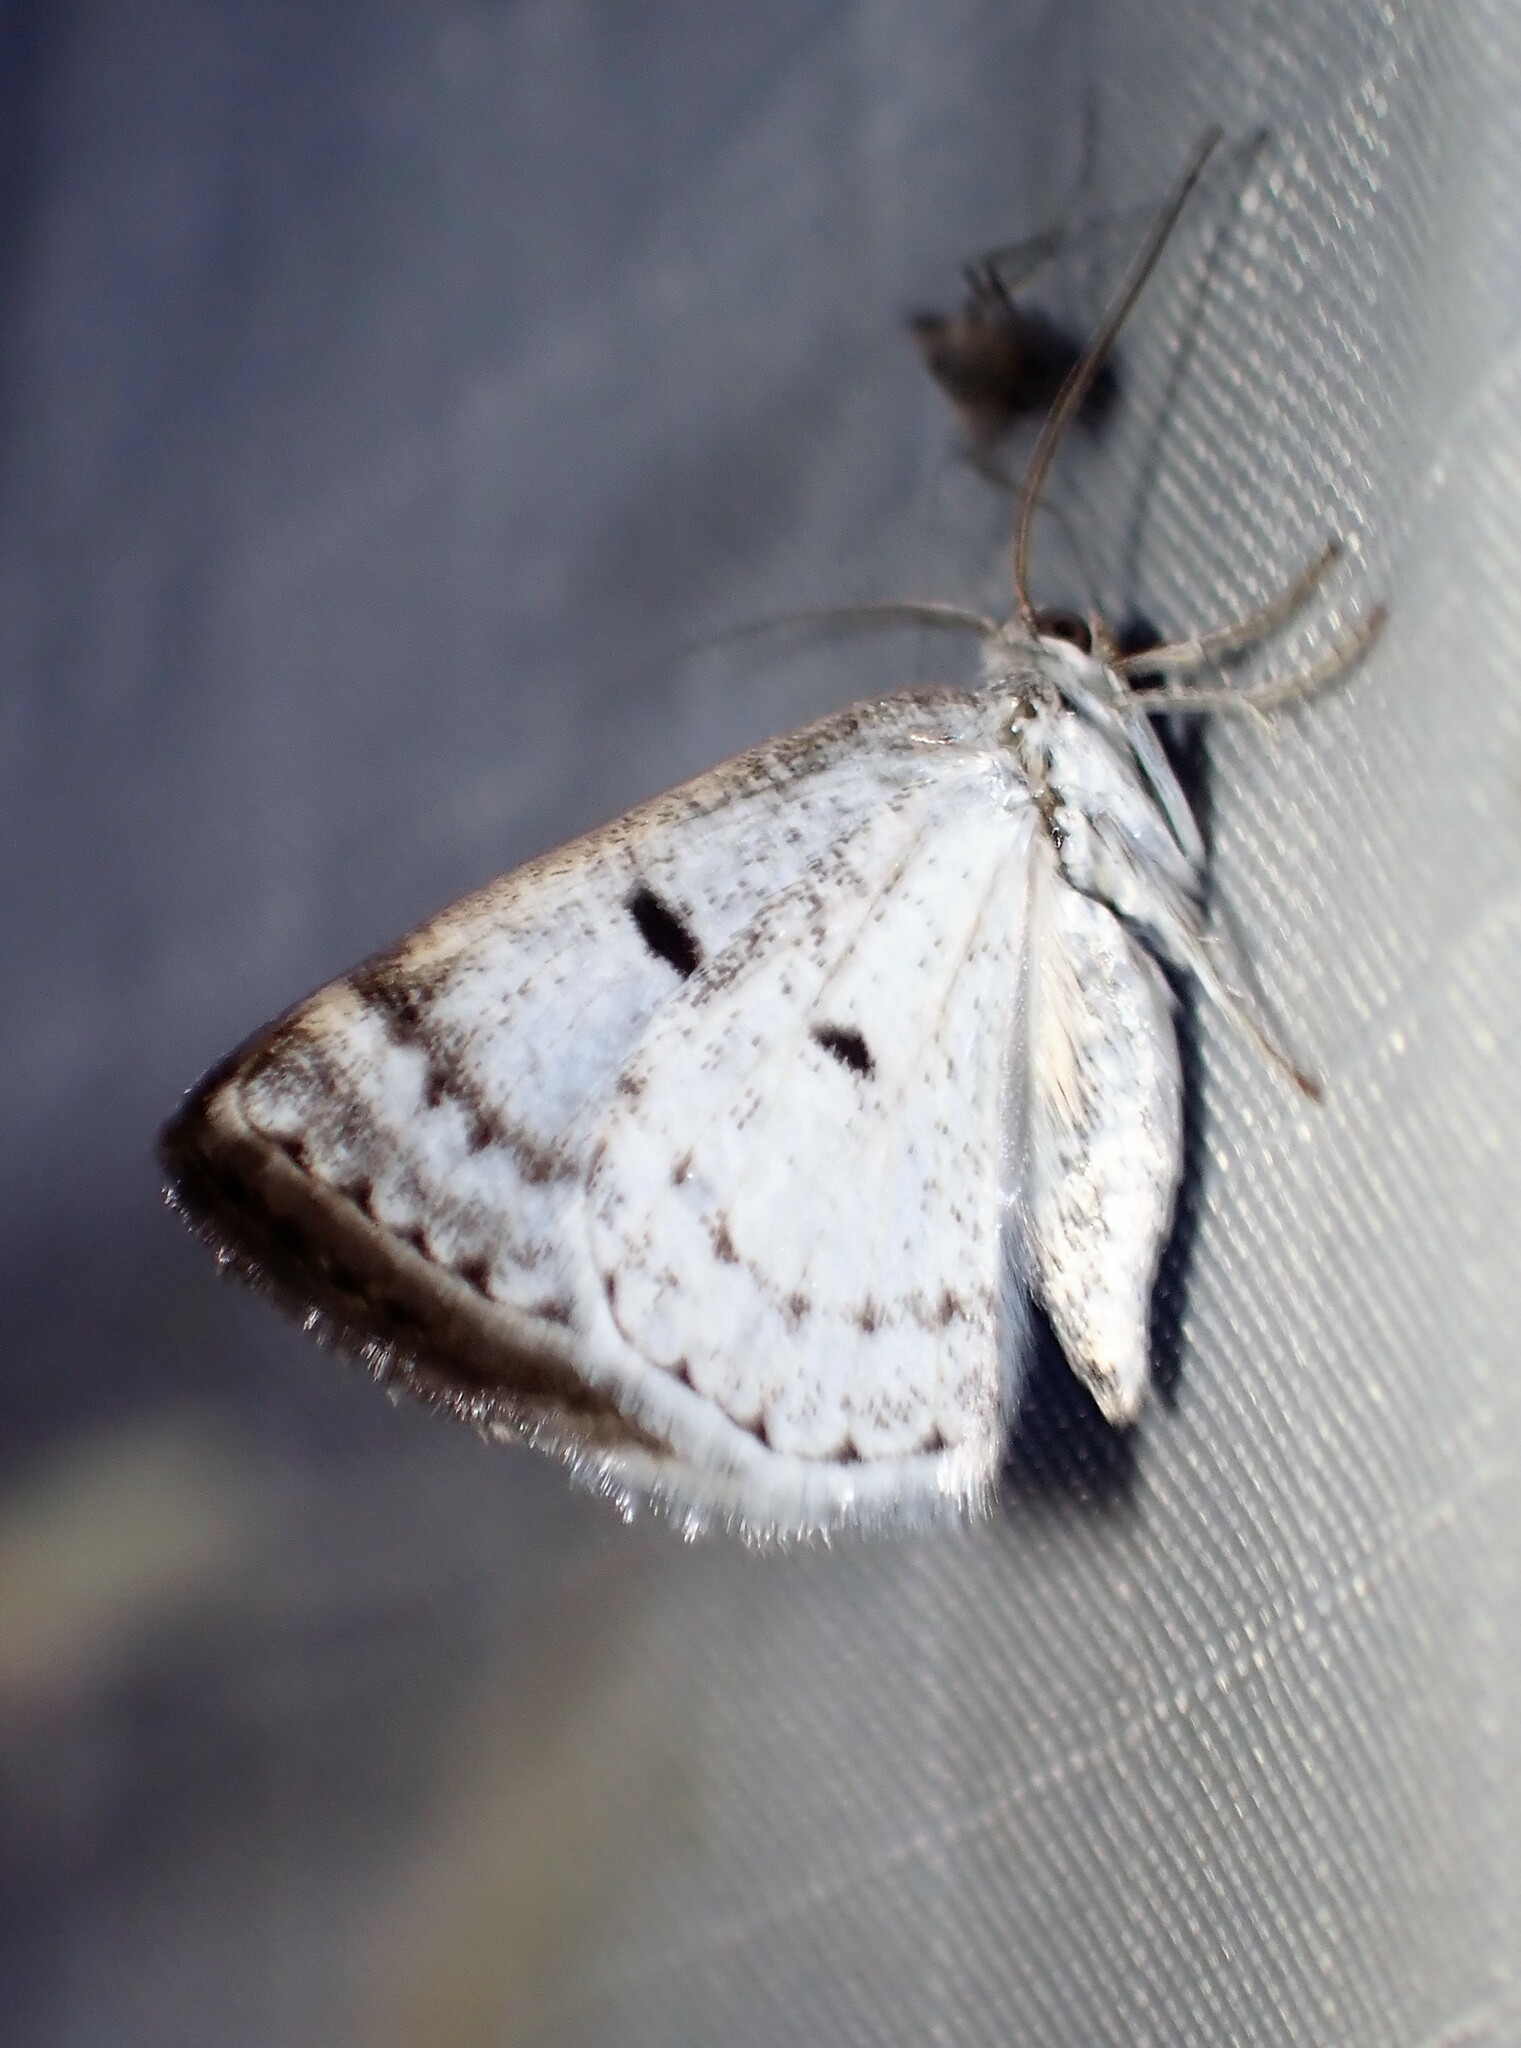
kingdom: Animalia
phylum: Arthropoda
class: Insecta
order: Lepidoptera
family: Geometridae
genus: Lomographa
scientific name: Lomographa semiclarata
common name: Bluish spring moth
